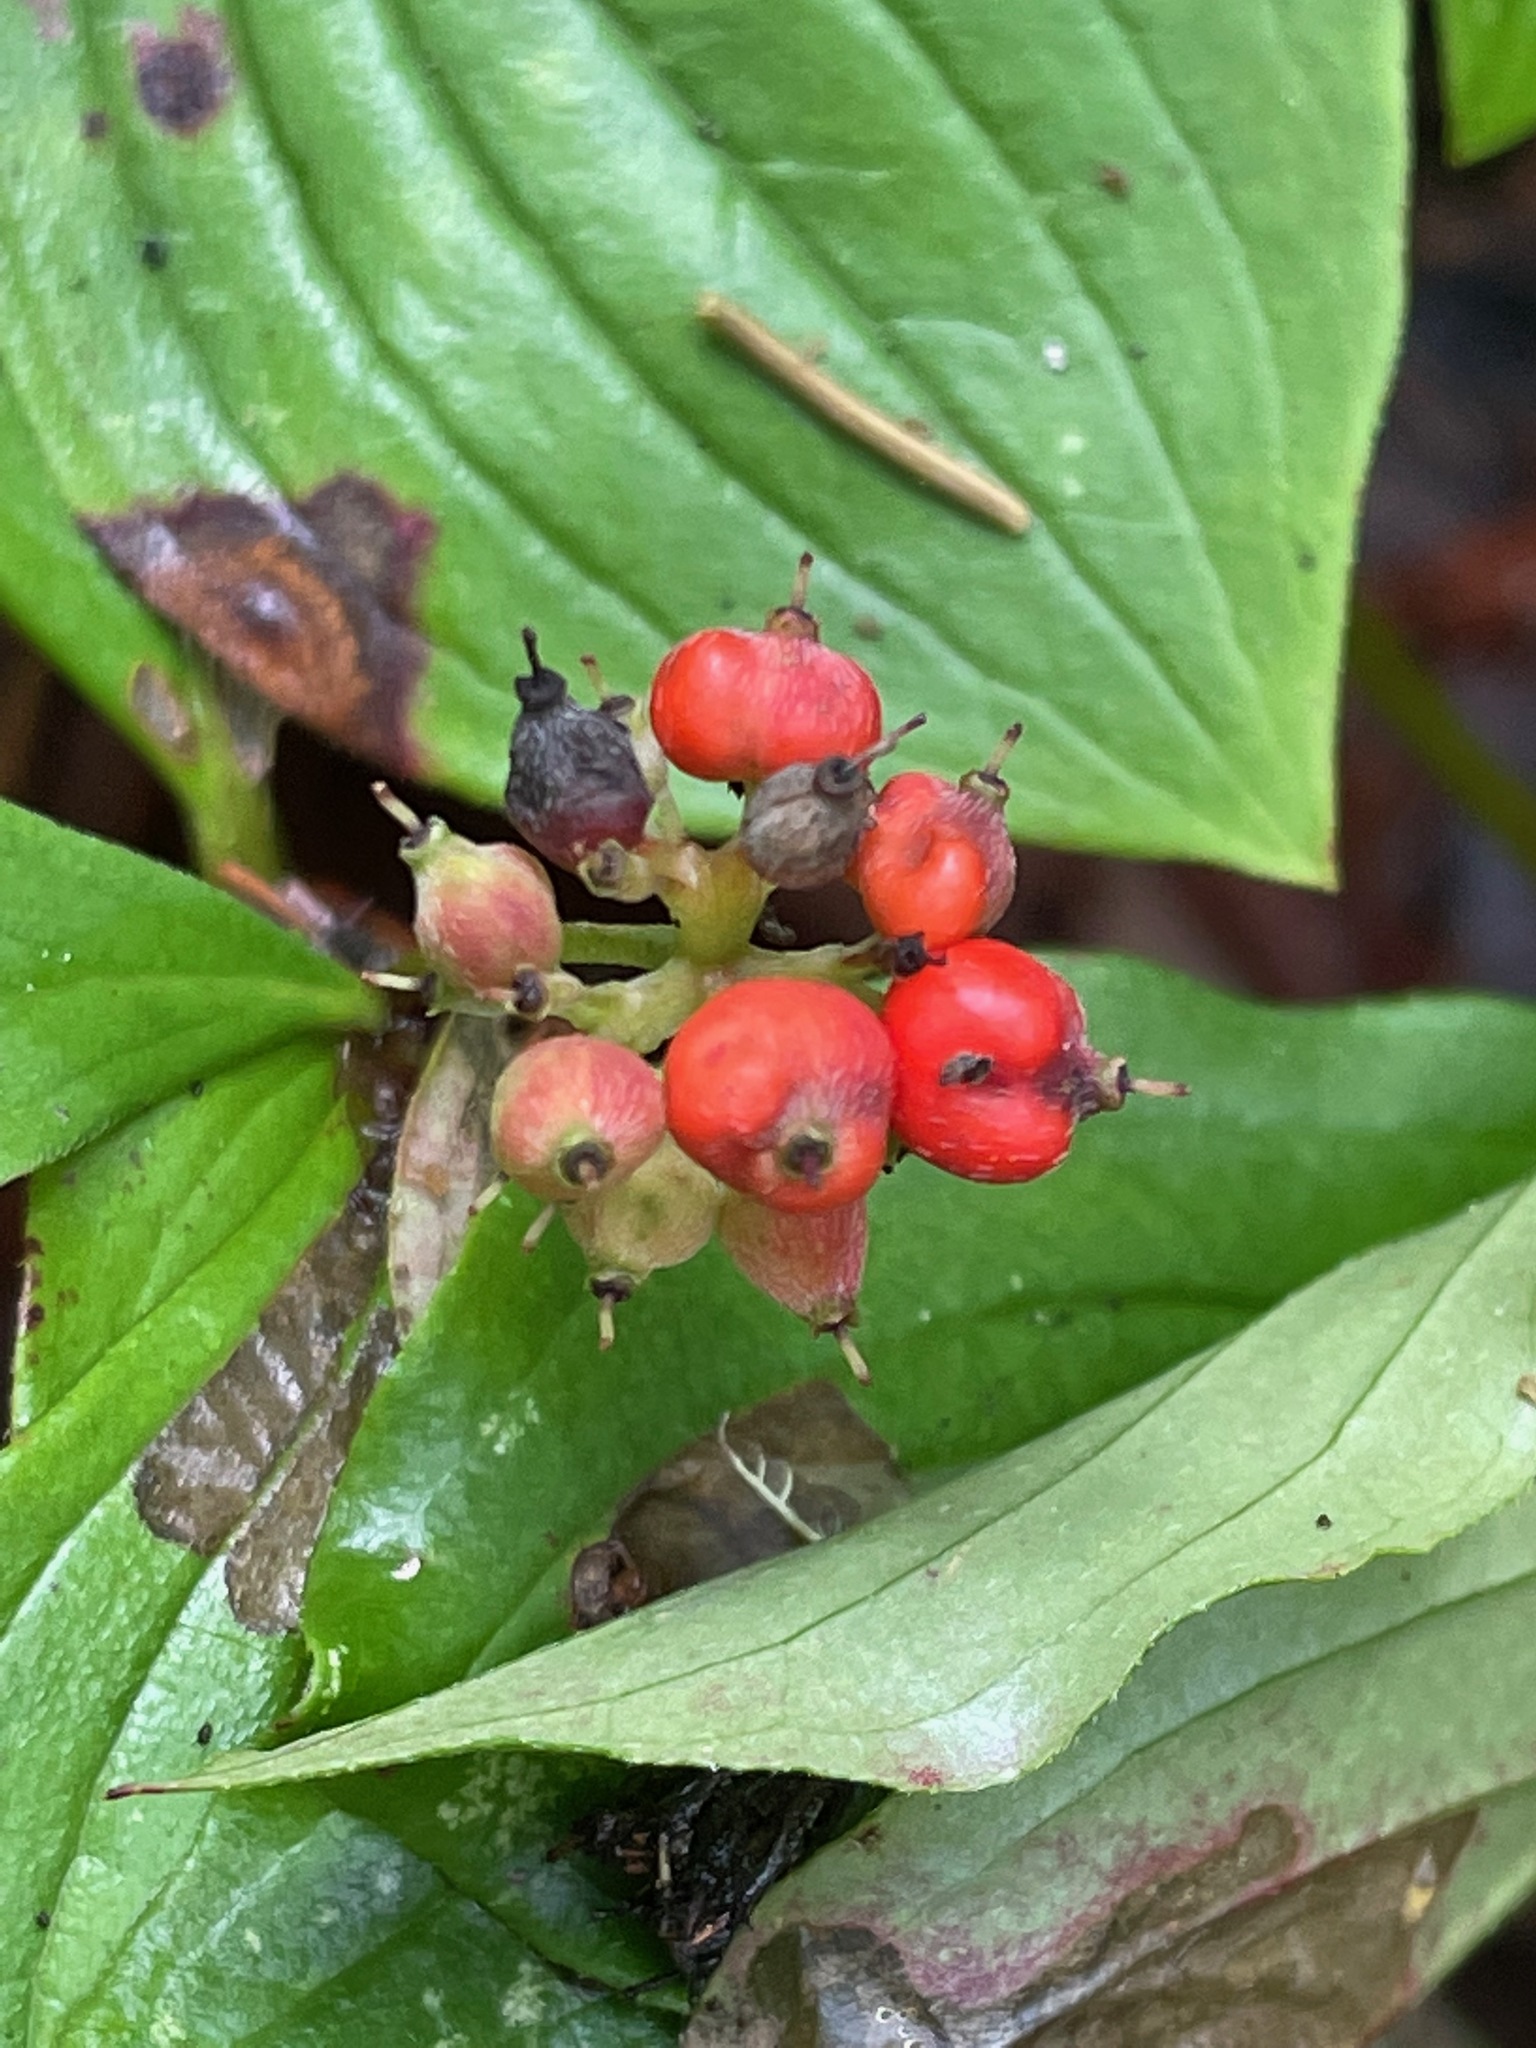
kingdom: Plantae
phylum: Tracheophyta
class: Magnoliopsida
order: Cornales
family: Cornaceae
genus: Cornus
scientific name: Cornus canadensis
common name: Creeping dogwood
